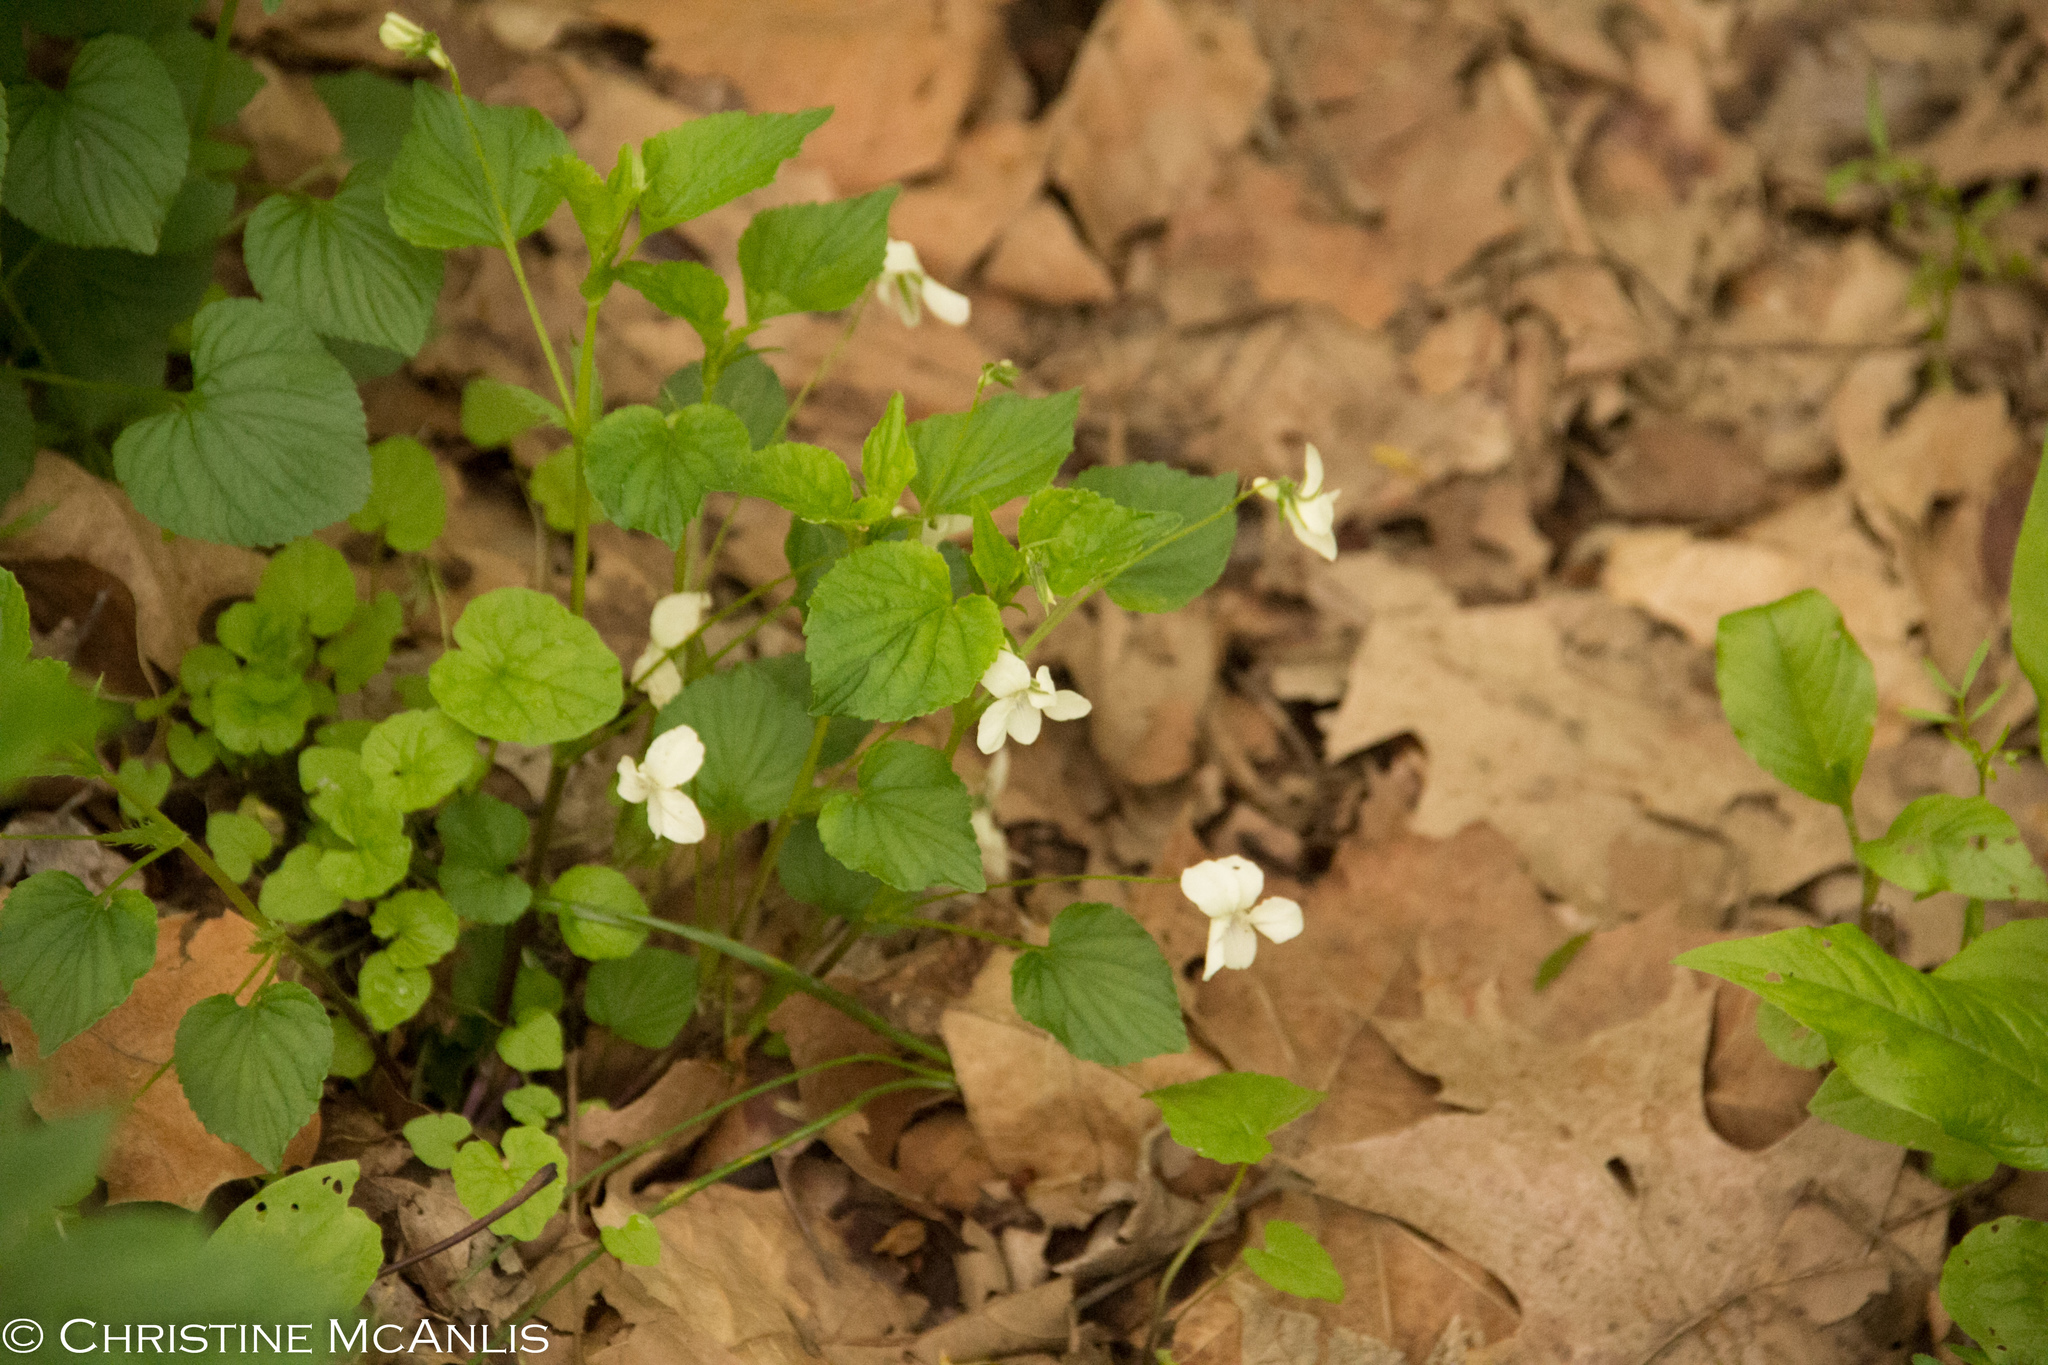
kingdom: Plantae
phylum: Tracheophyta
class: Magnoliopsida
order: Malpighiales
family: Violaceae
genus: Viola
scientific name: Viola striata
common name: Cream violet
